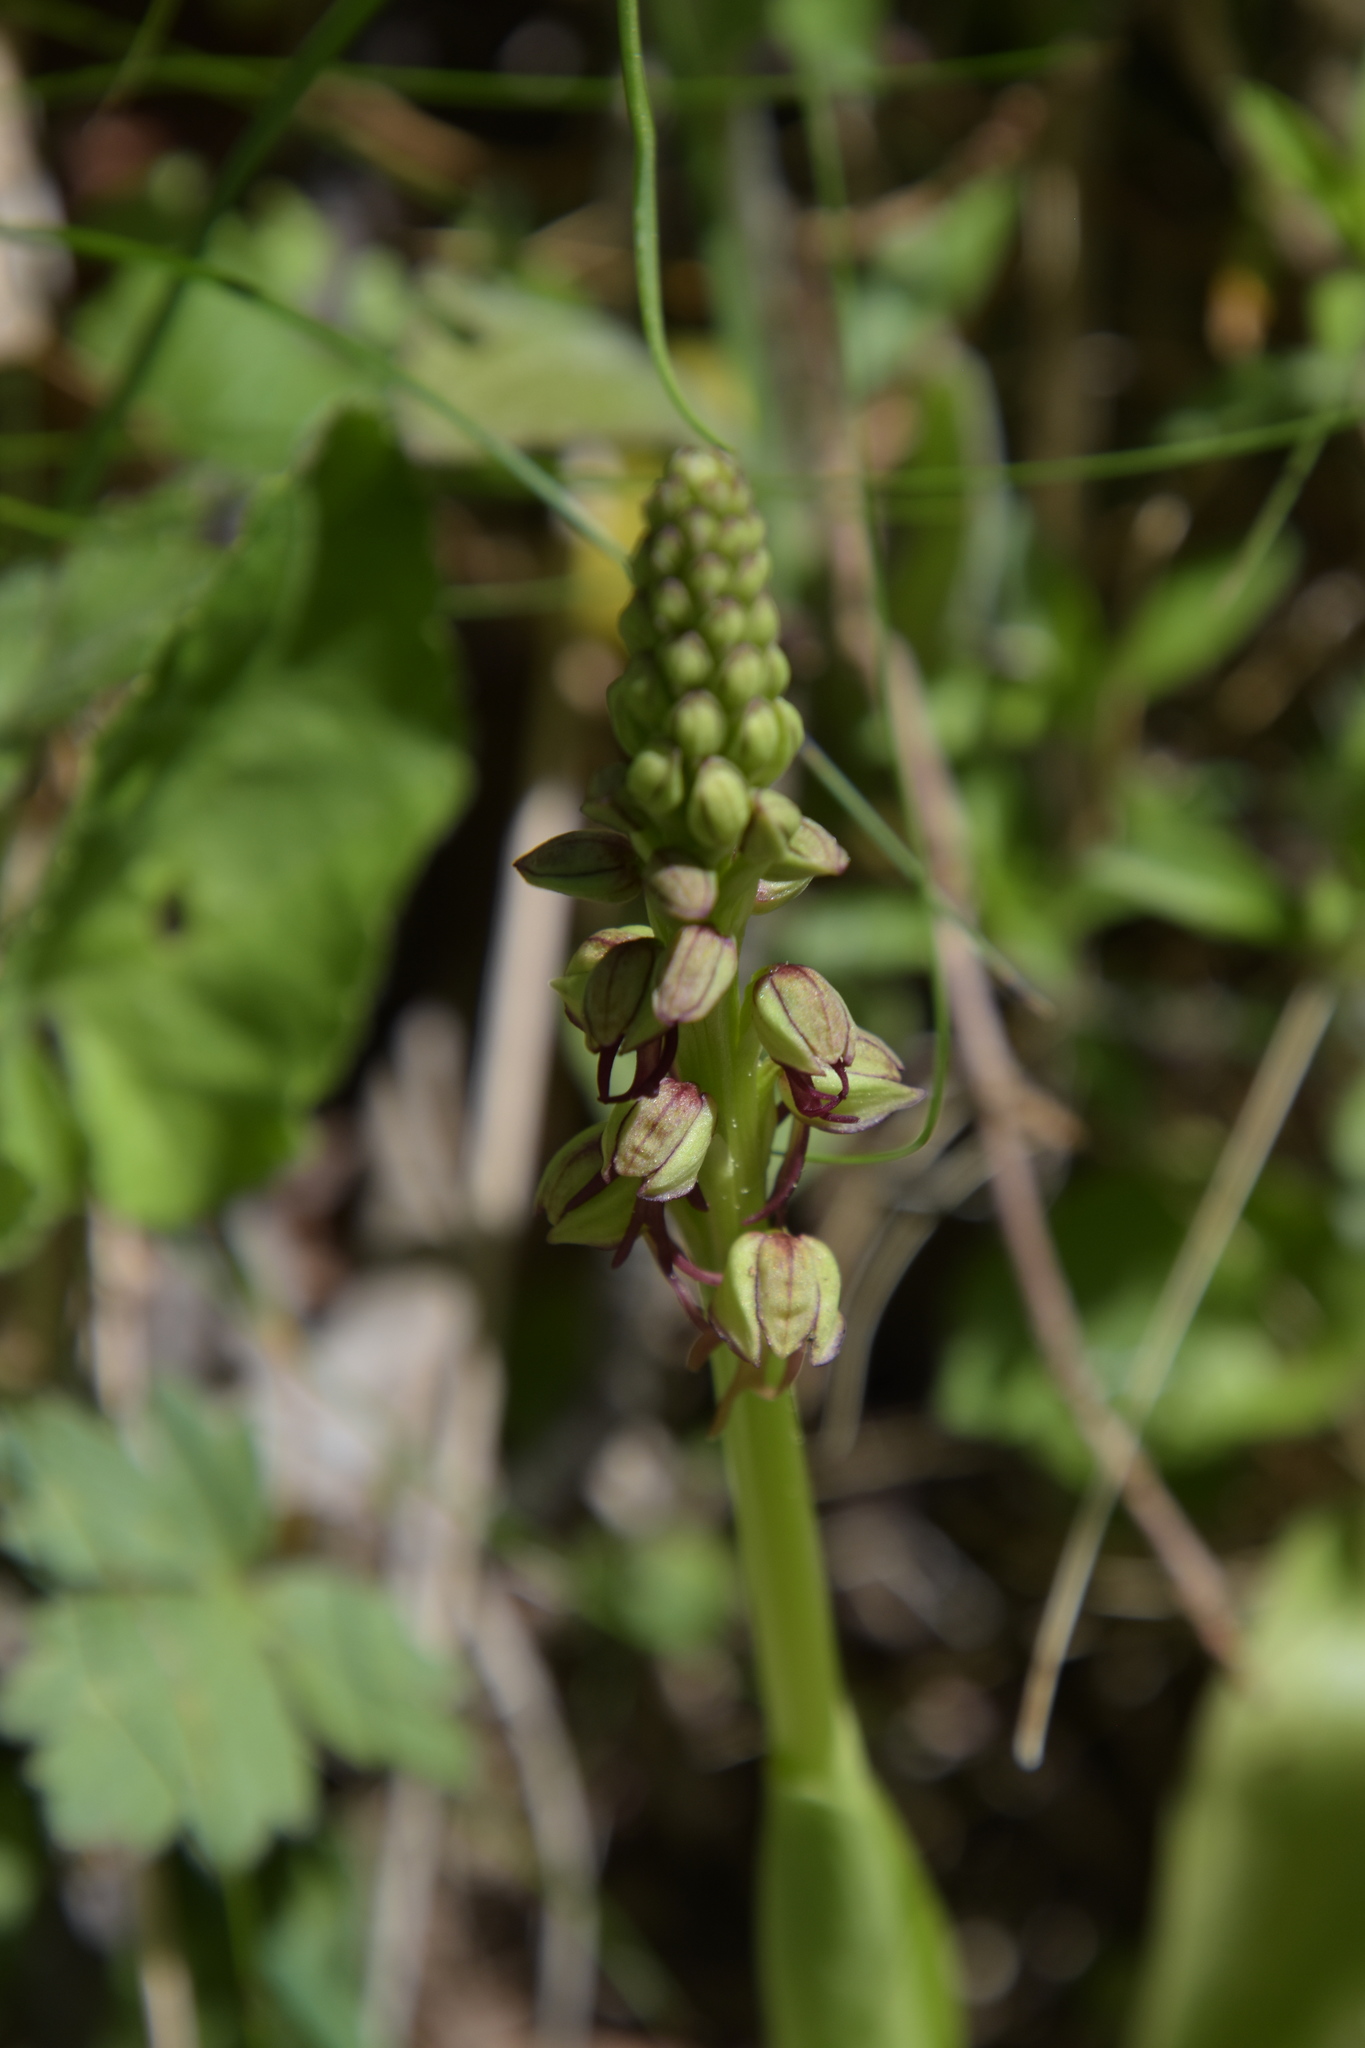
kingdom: Plantae
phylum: Tracheophyta
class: Liliopsida
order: Asparagales
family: Orchidaceae
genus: Orchis
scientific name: Orchis anthropophora
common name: Man orchid
